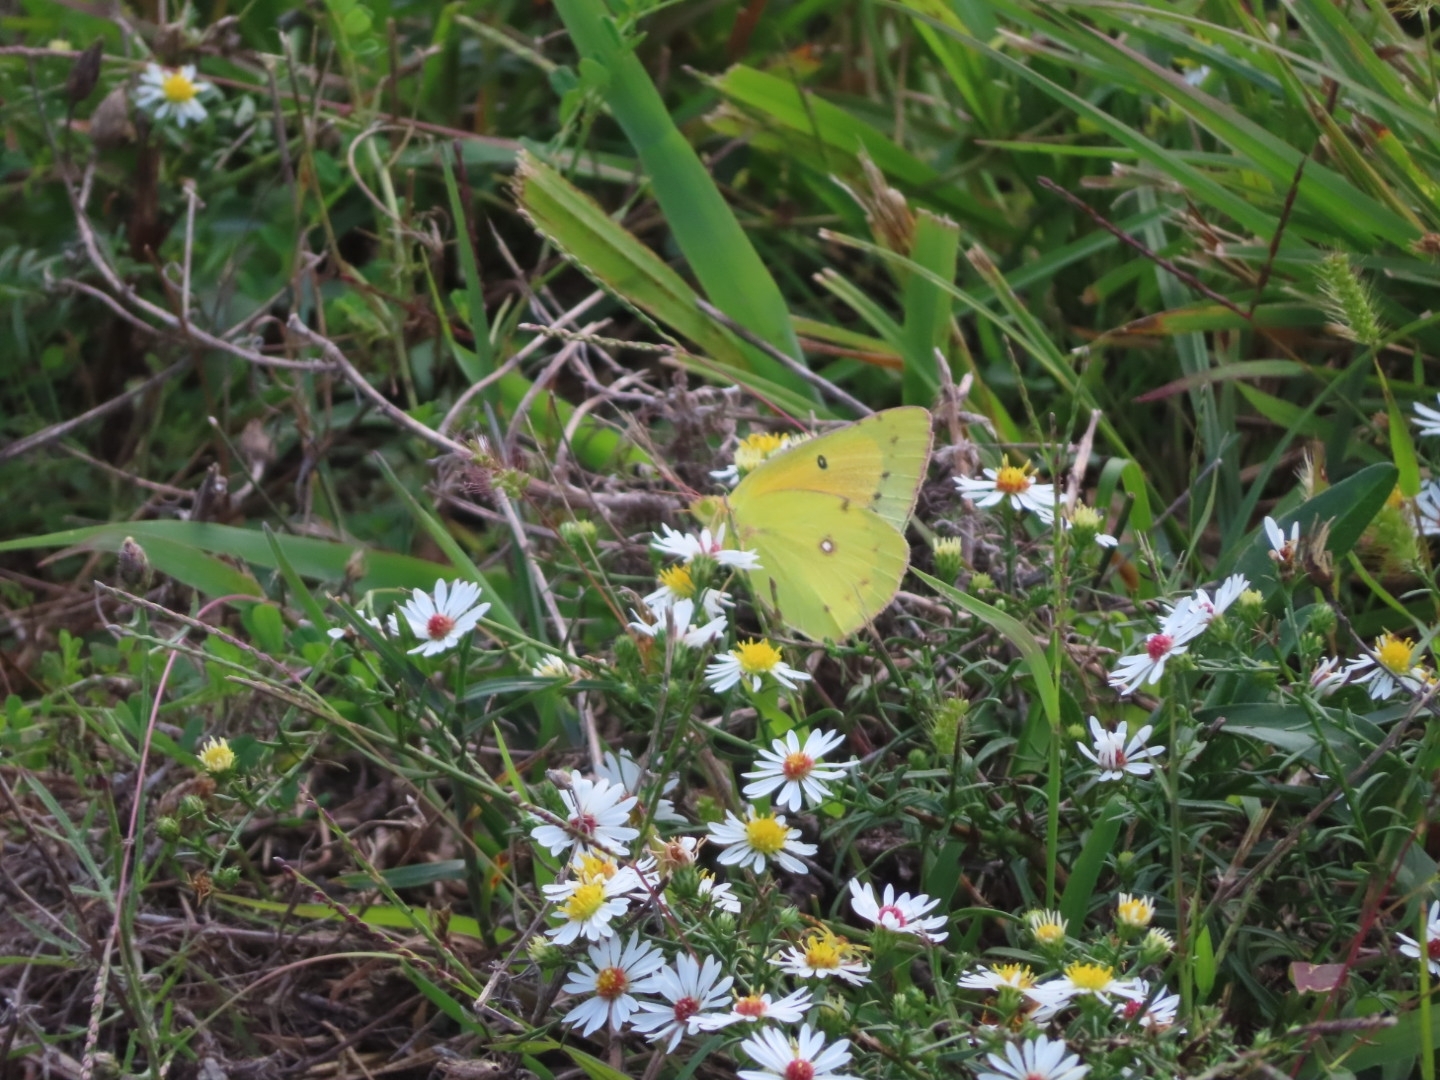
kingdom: Animalia
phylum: Arthropoda
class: Insecta
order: Lepidoptera
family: Pieridae
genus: Colias
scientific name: Colias eurytheme
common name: Alfalfa butterfly
